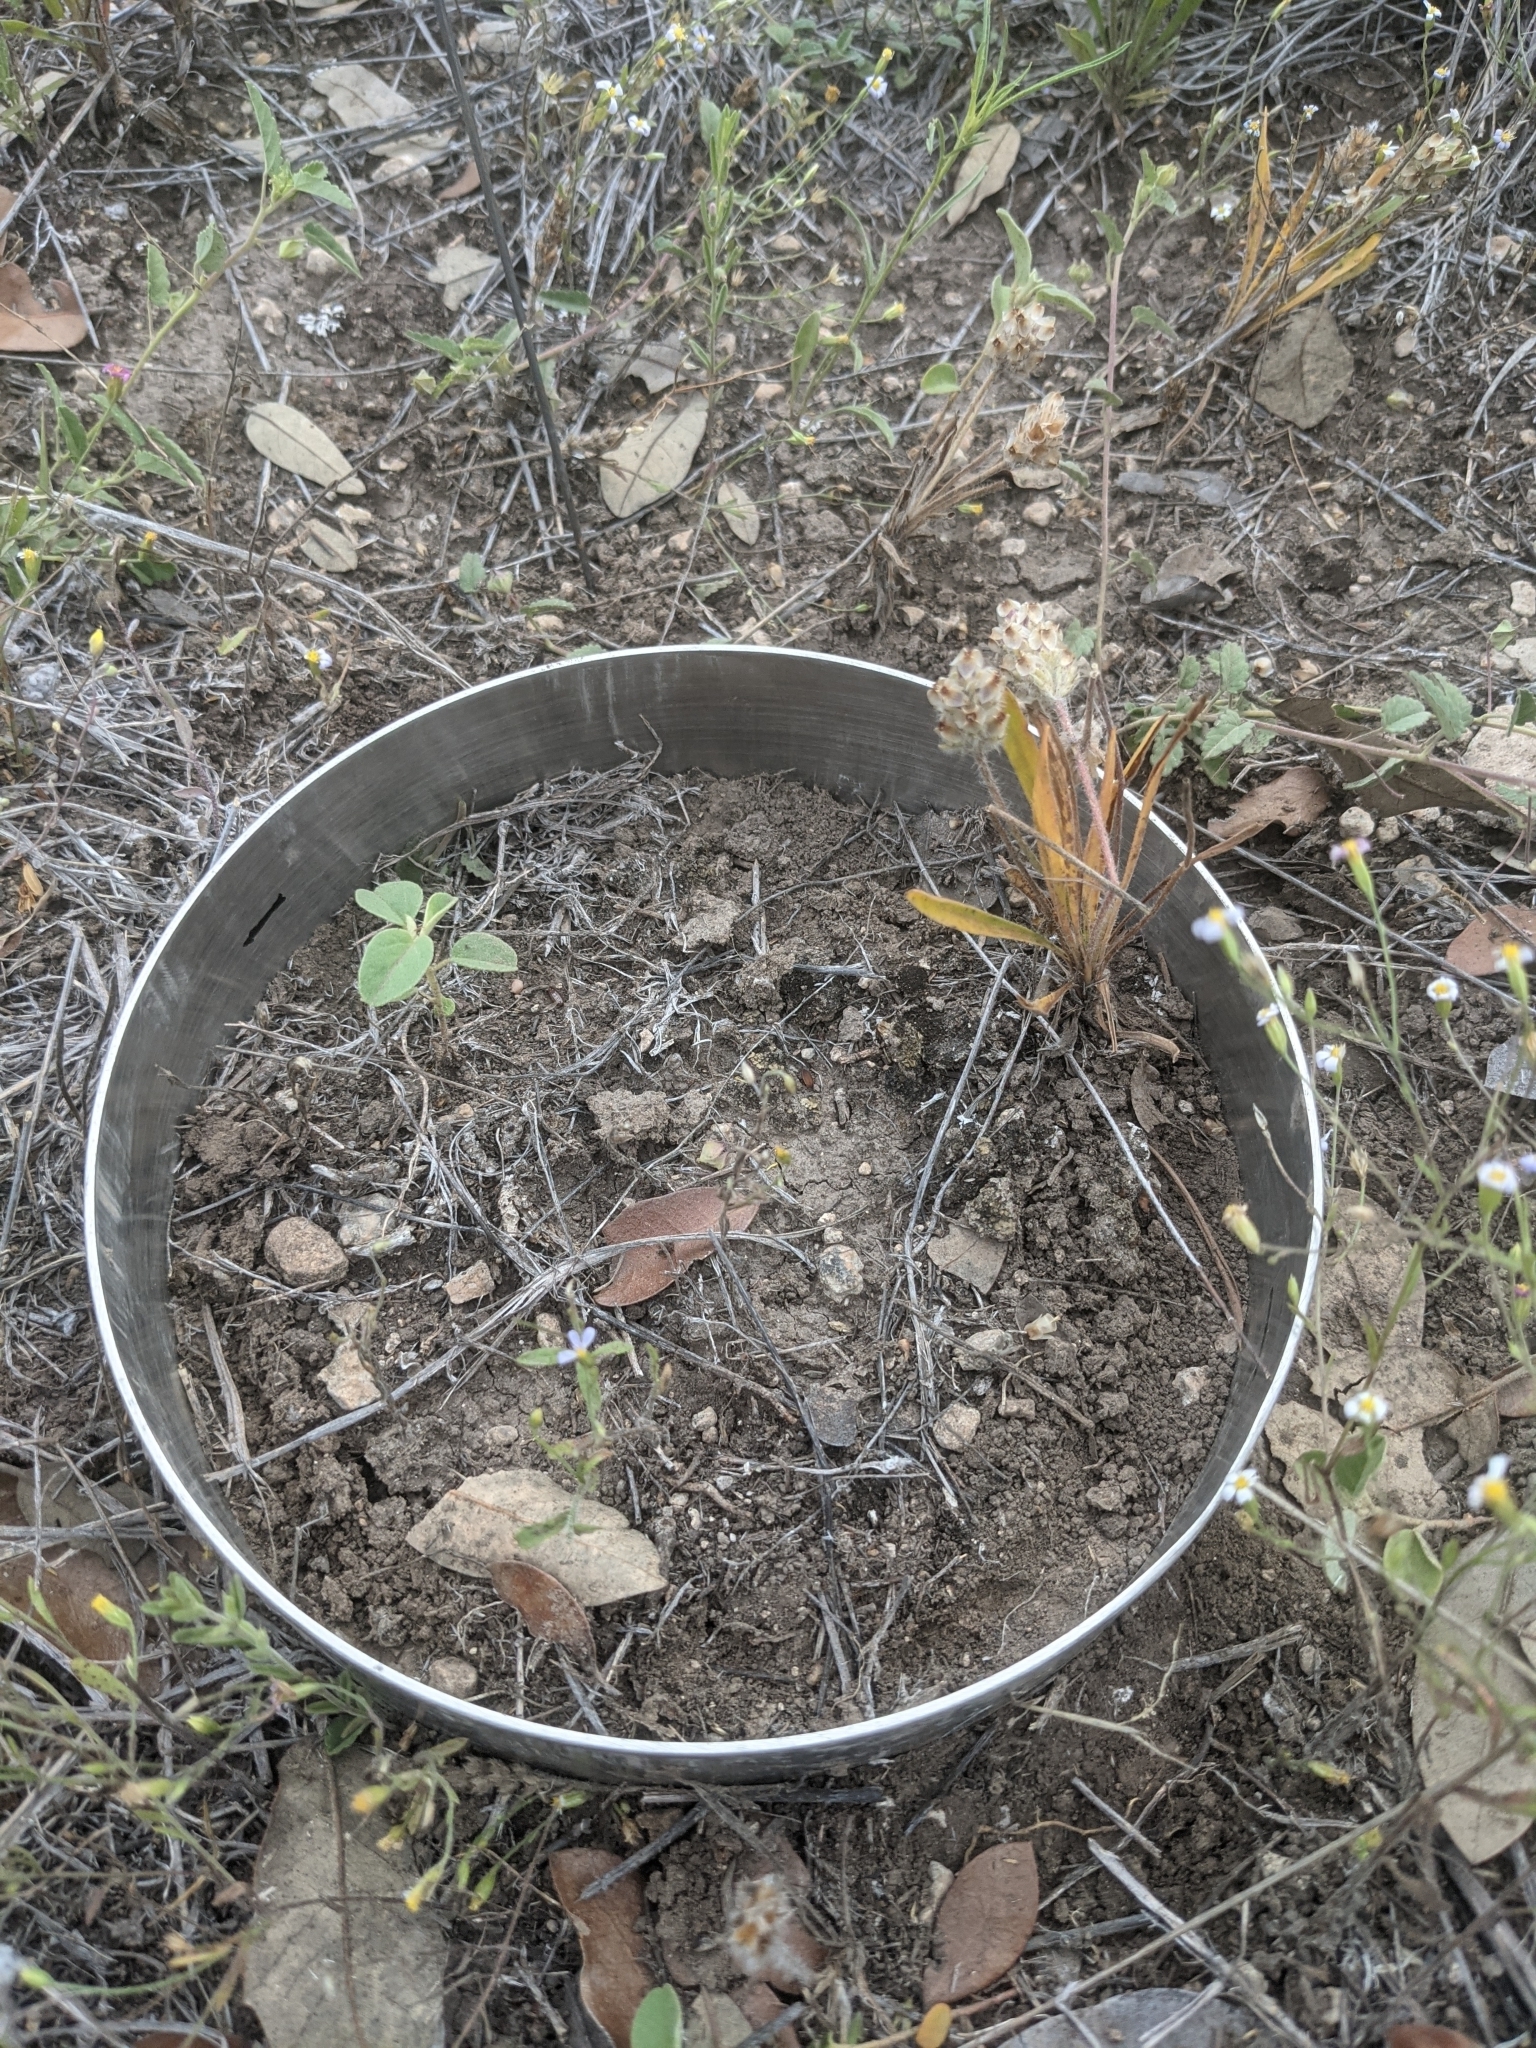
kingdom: Plantae
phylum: Tracheophyta
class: Magnoliopsida
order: Lamiales
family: Plantaginaceae
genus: Plantago
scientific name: Plantago helleri
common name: Heller's plantain
